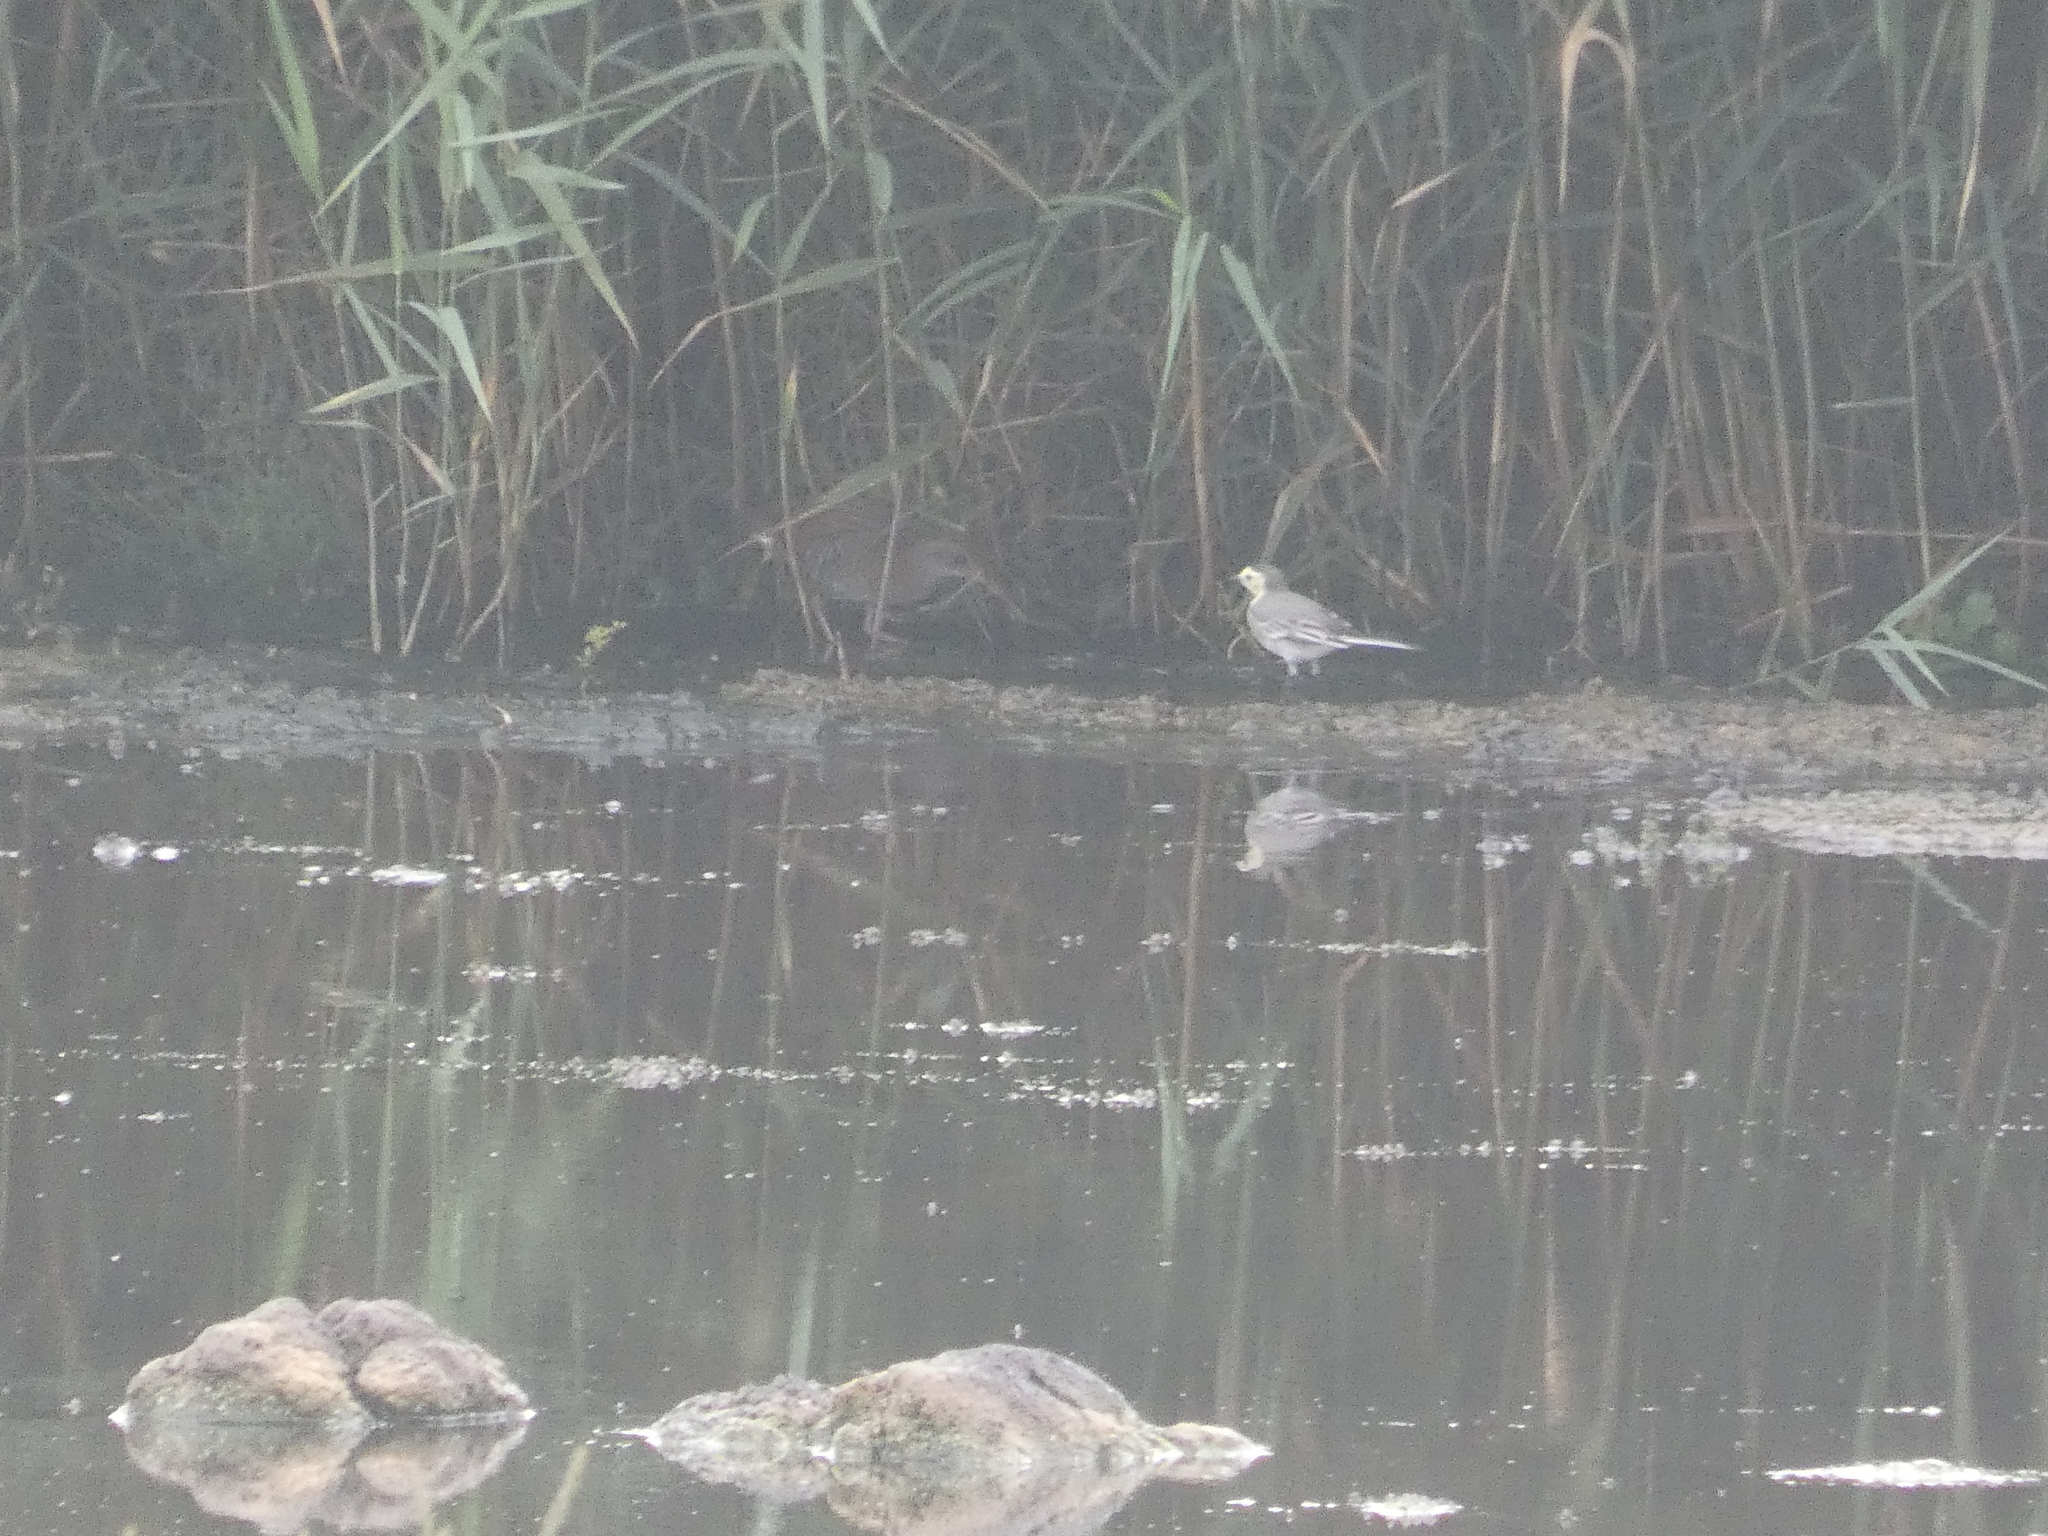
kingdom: Animalia
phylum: Chordata
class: Aves
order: Gruiformes
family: Rallidae
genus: Rallus
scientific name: Rallus aquaticus
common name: Water rail
